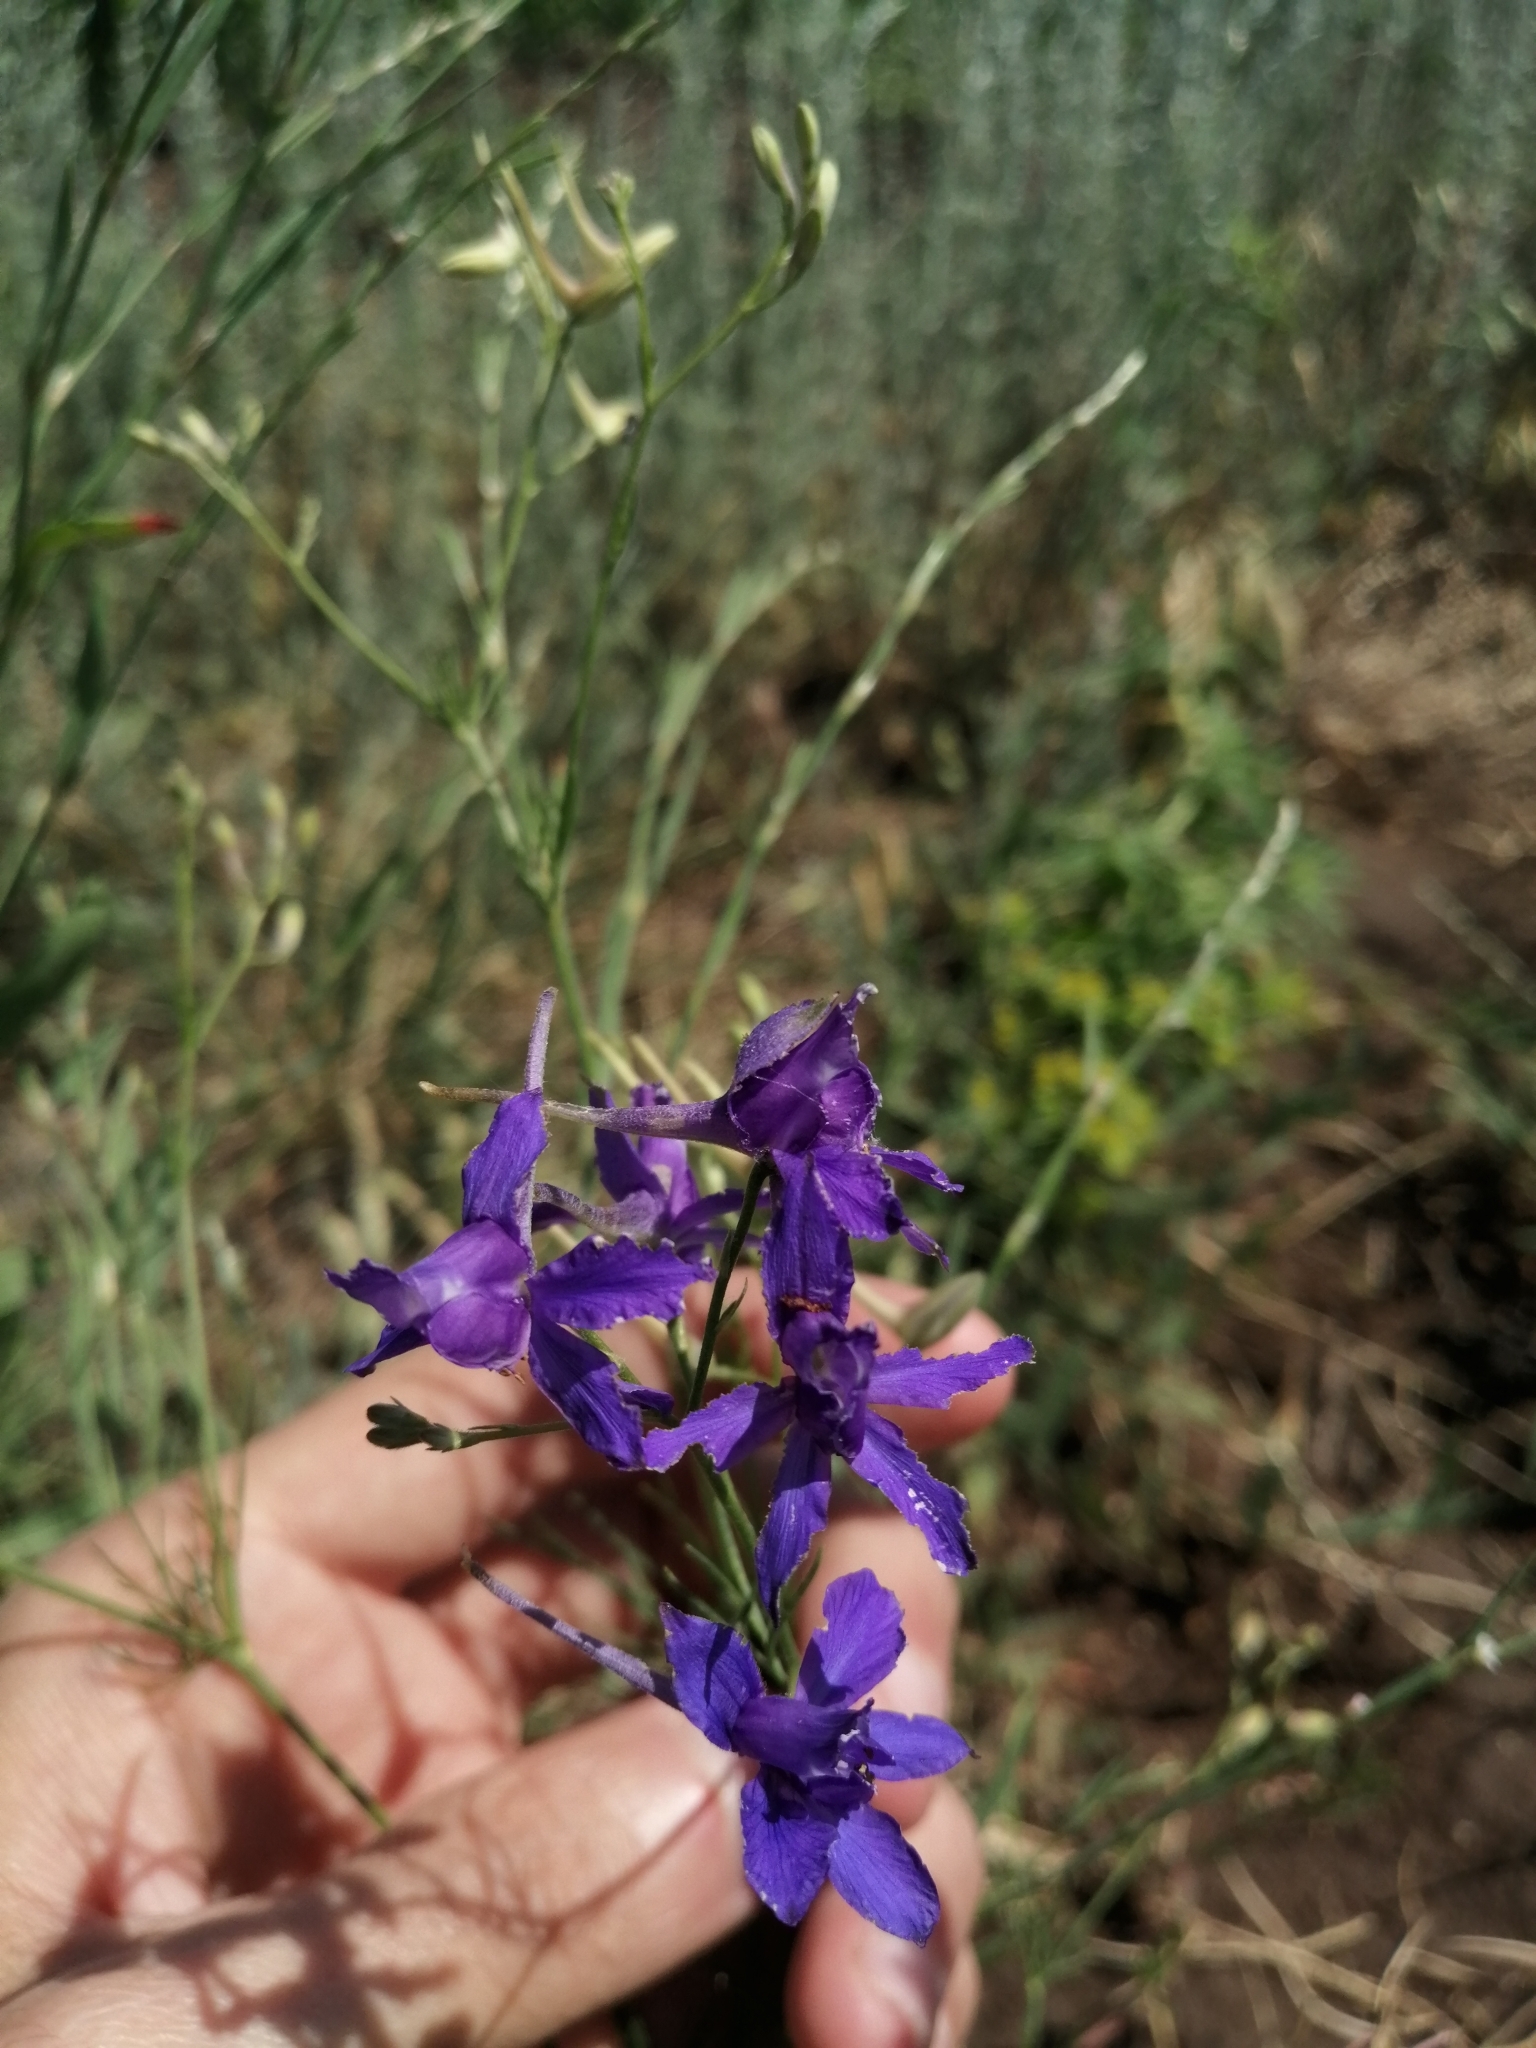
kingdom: Plantae
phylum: Tracheophyta
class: Magnoliopsida
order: Ranunculales
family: Ranunculaceae
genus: Delphinium
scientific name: Delphinium consolida
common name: Branching larkspur
